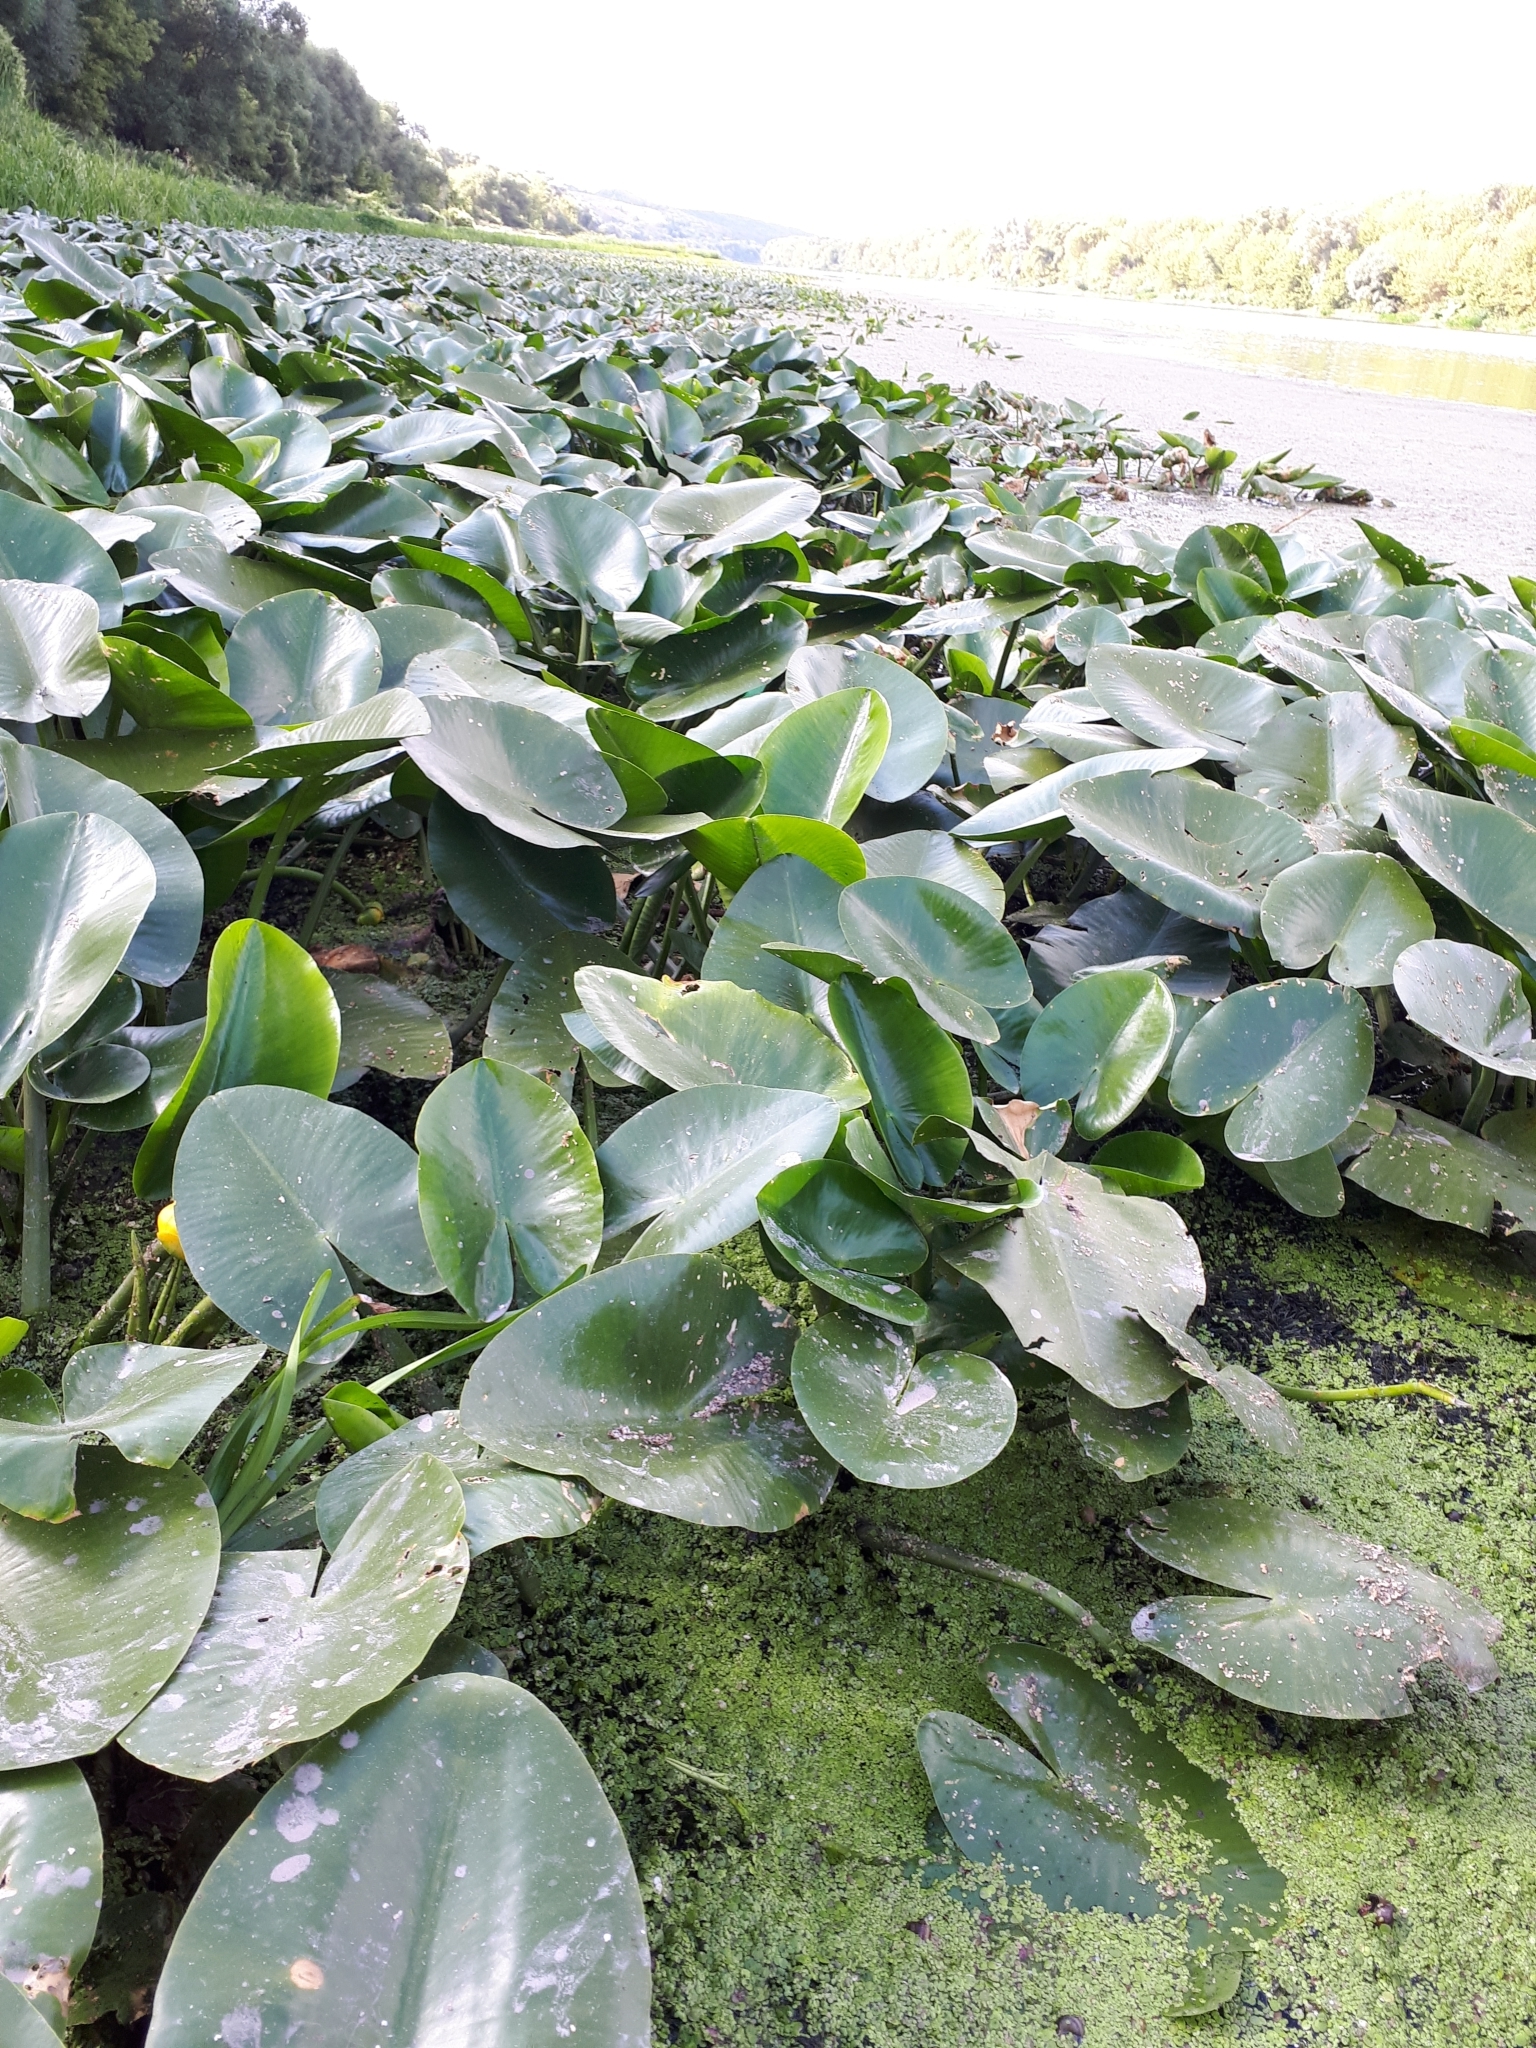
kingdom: Plantae
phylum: Tracheophyta
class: Magnoliopsida
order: Nymphaeales
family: Nymphaeaceae
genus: Nuphar
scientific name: Nuphar lutea
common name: Yellow water-lily
